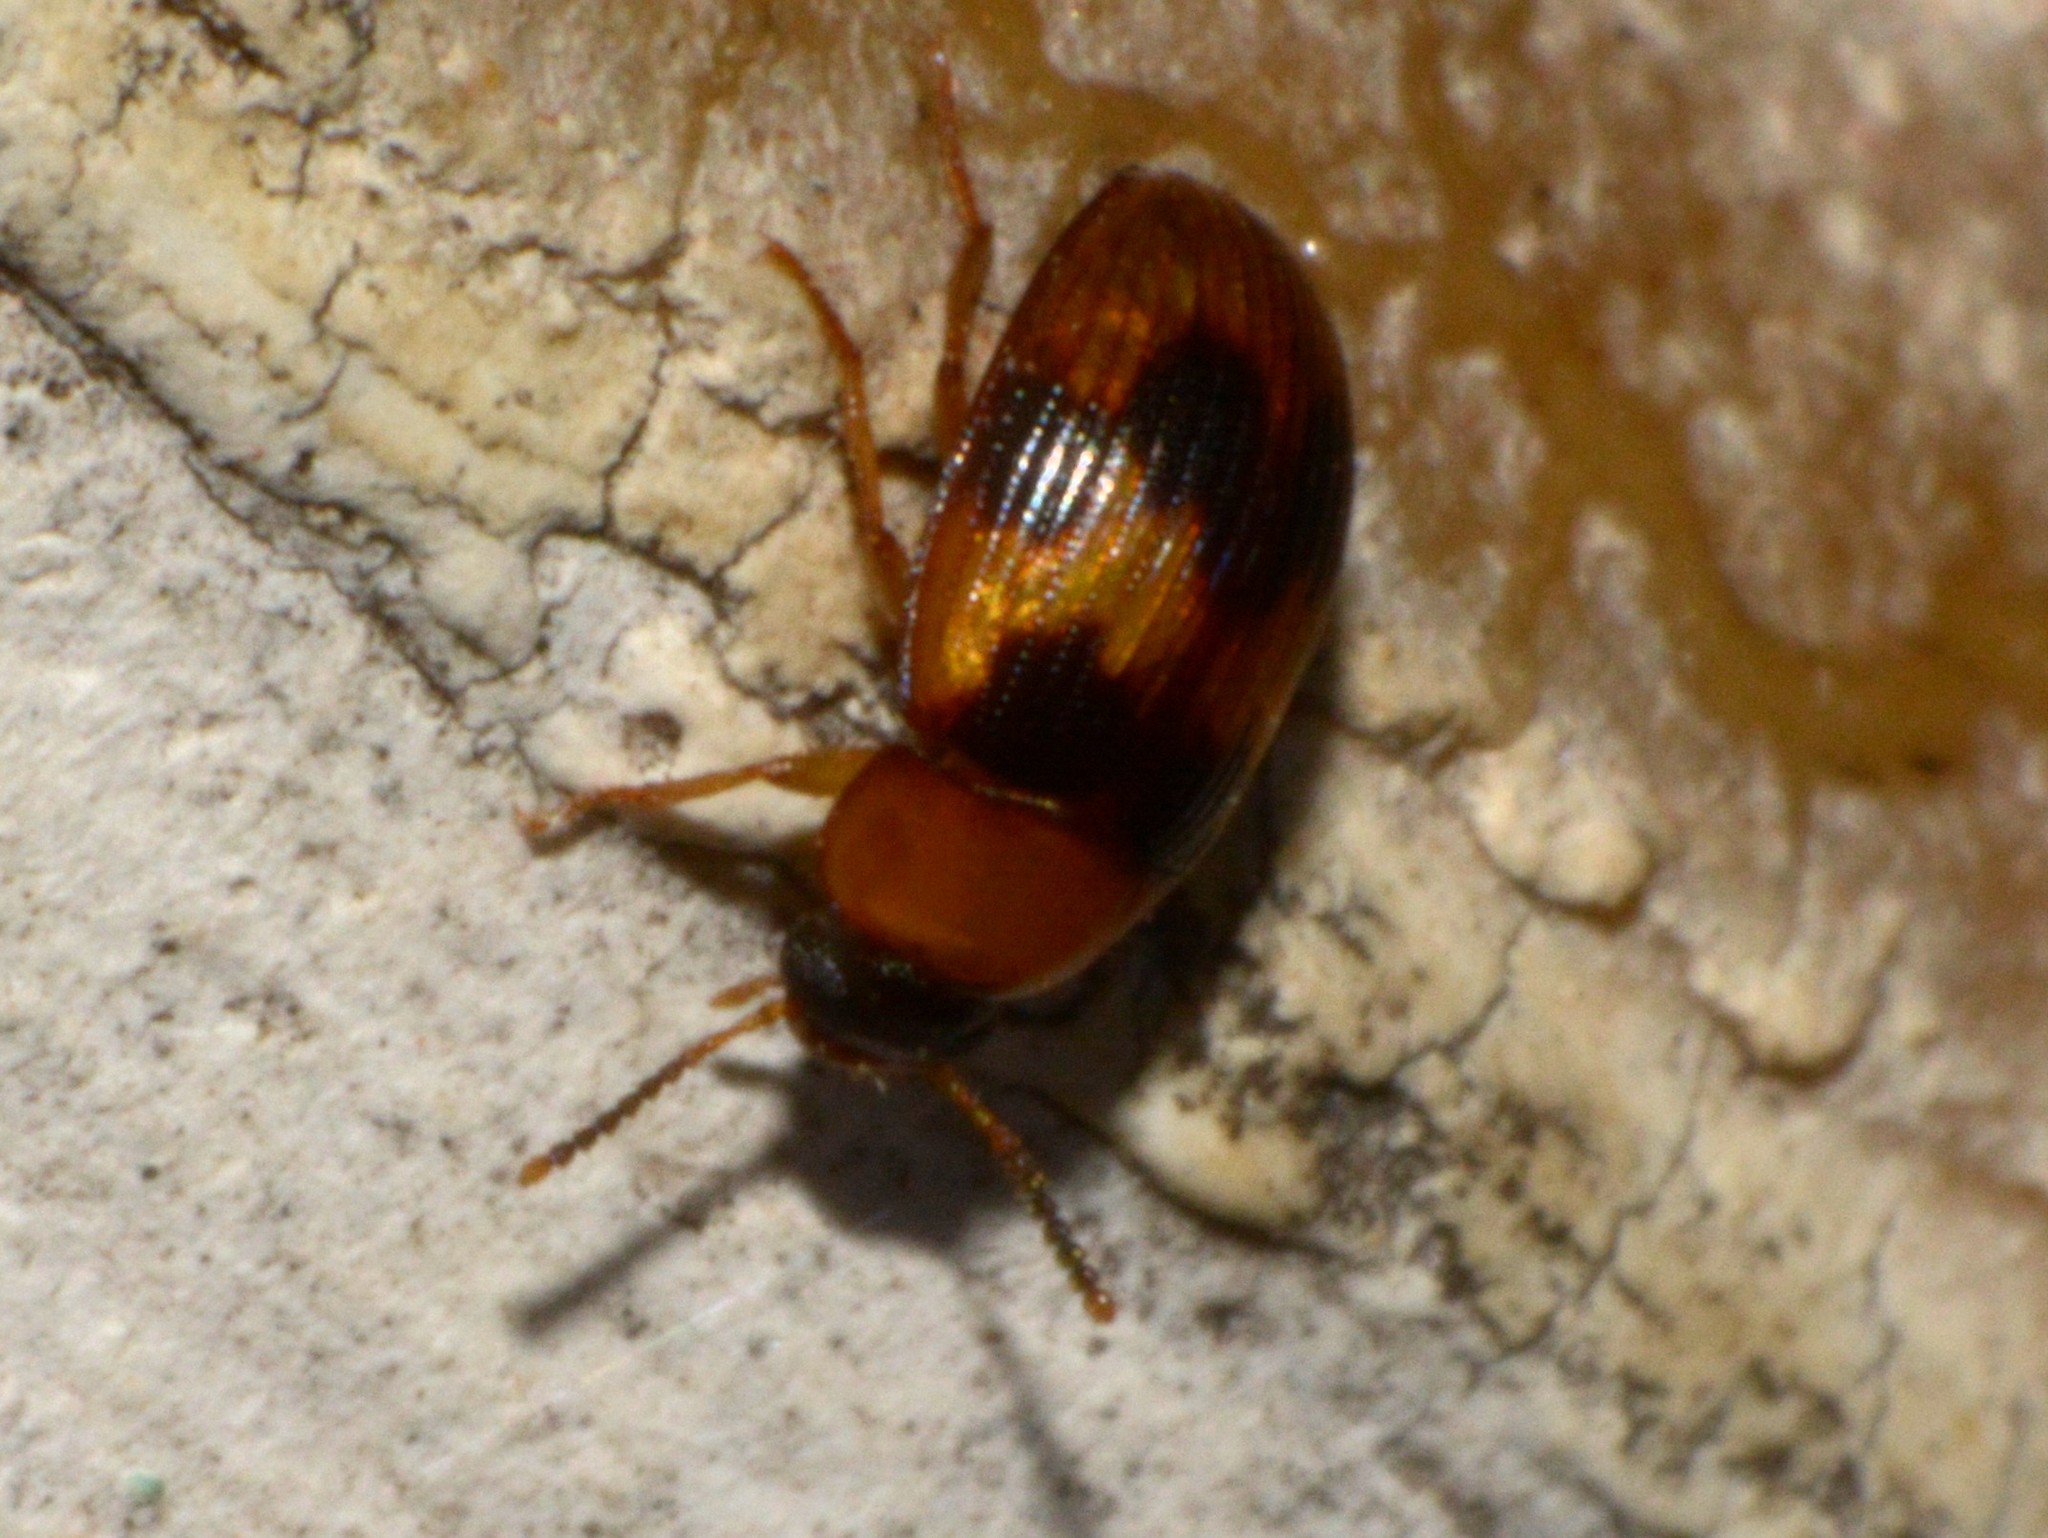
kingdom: Animalia
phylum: Arthropoda
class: Insecta
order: Coleoptera
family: Tenebrionidae
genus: Stomylus
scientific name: Stomylus
